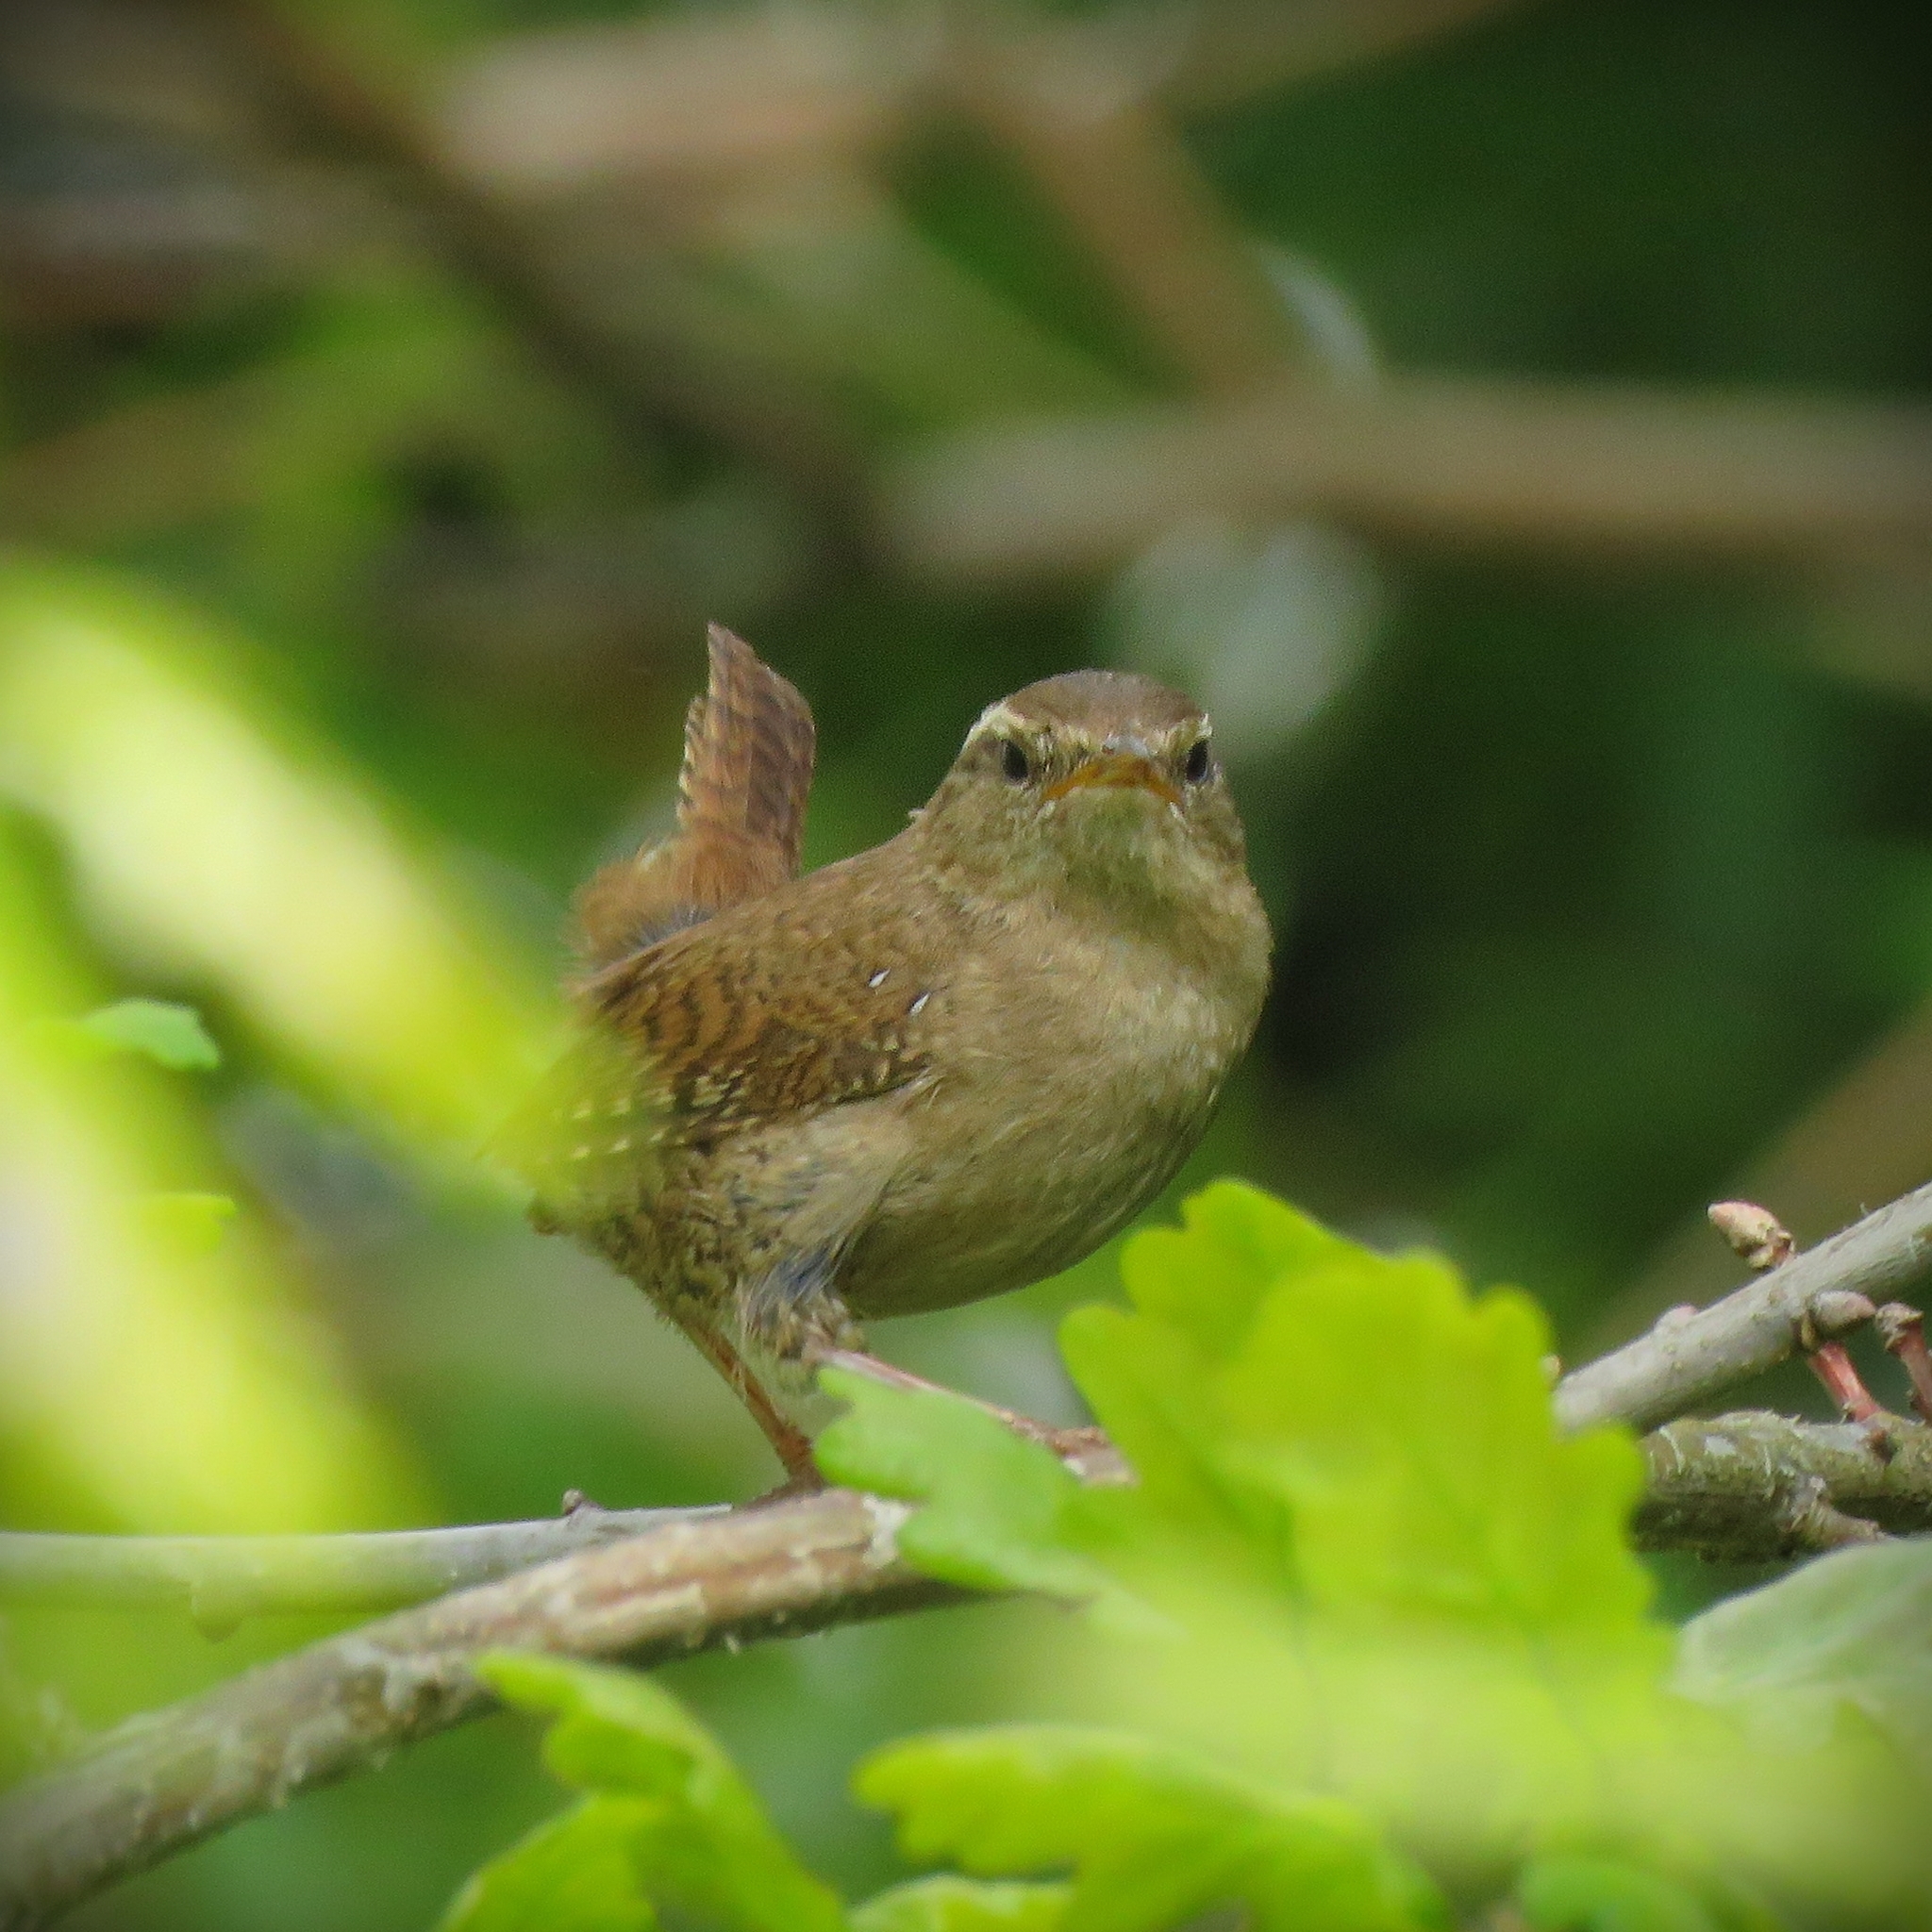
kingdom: Animalia
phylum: Chordata
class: Aves
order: Passeriformes
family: Troglodytidae
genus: Troglodytes
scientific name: Troglodytes troglodytes
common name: Eurasian wren
